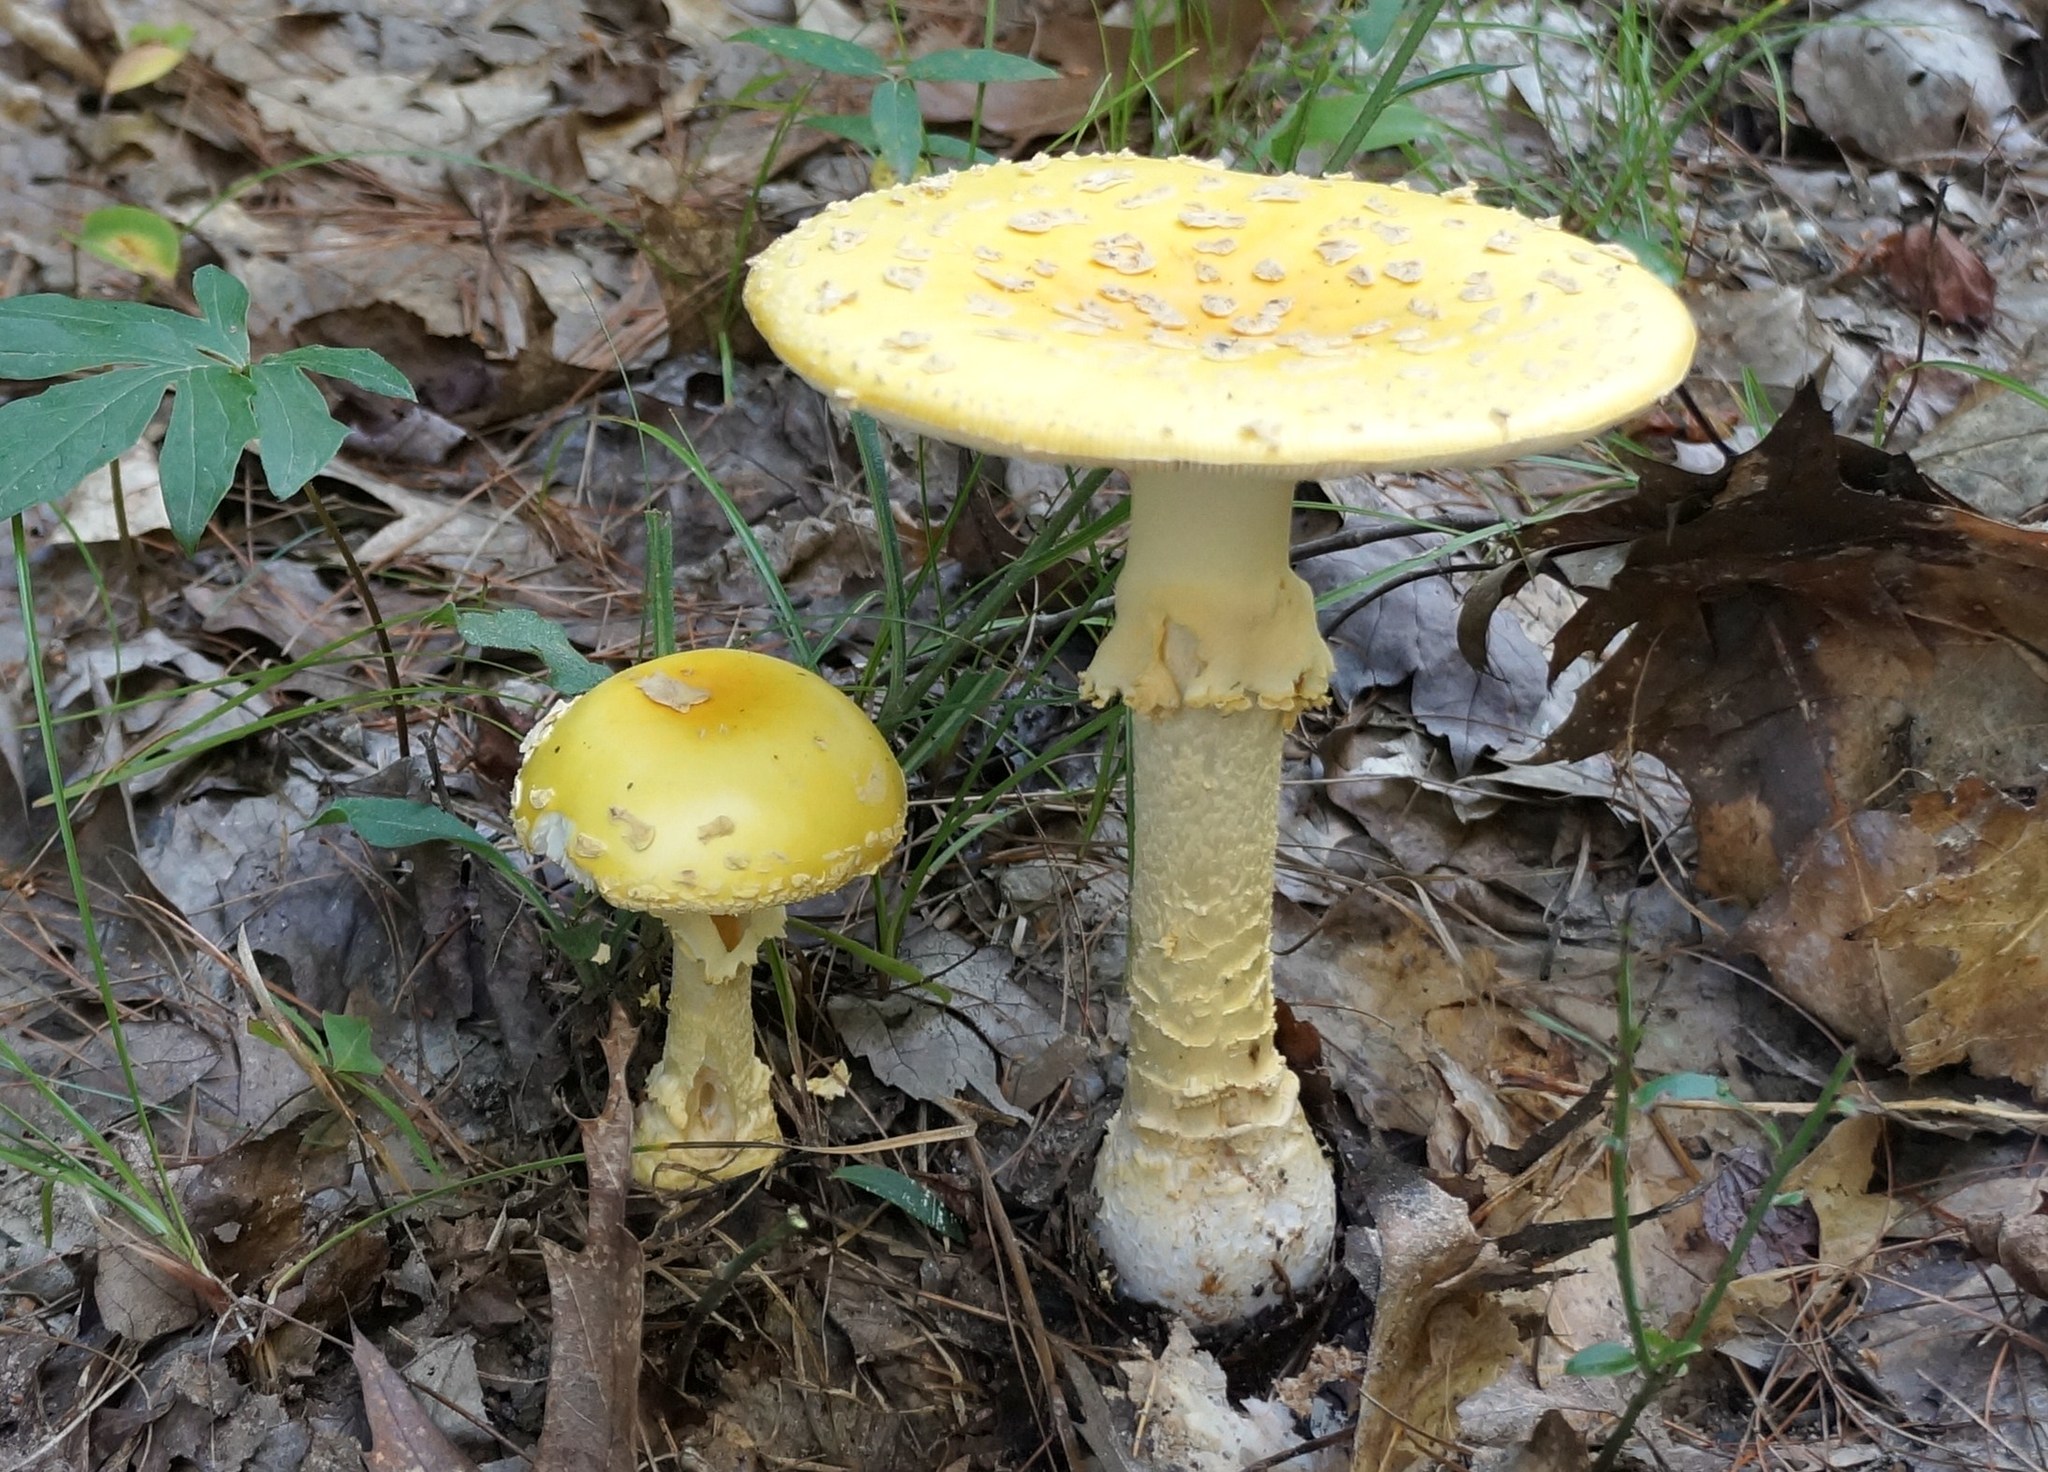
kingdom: Fungi
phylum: Basidiomycota
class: Agaricomycetes
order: Agaricales
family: Amanitaceae
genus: Amanita
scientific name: Amanita muscaria
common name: Fly agaric
